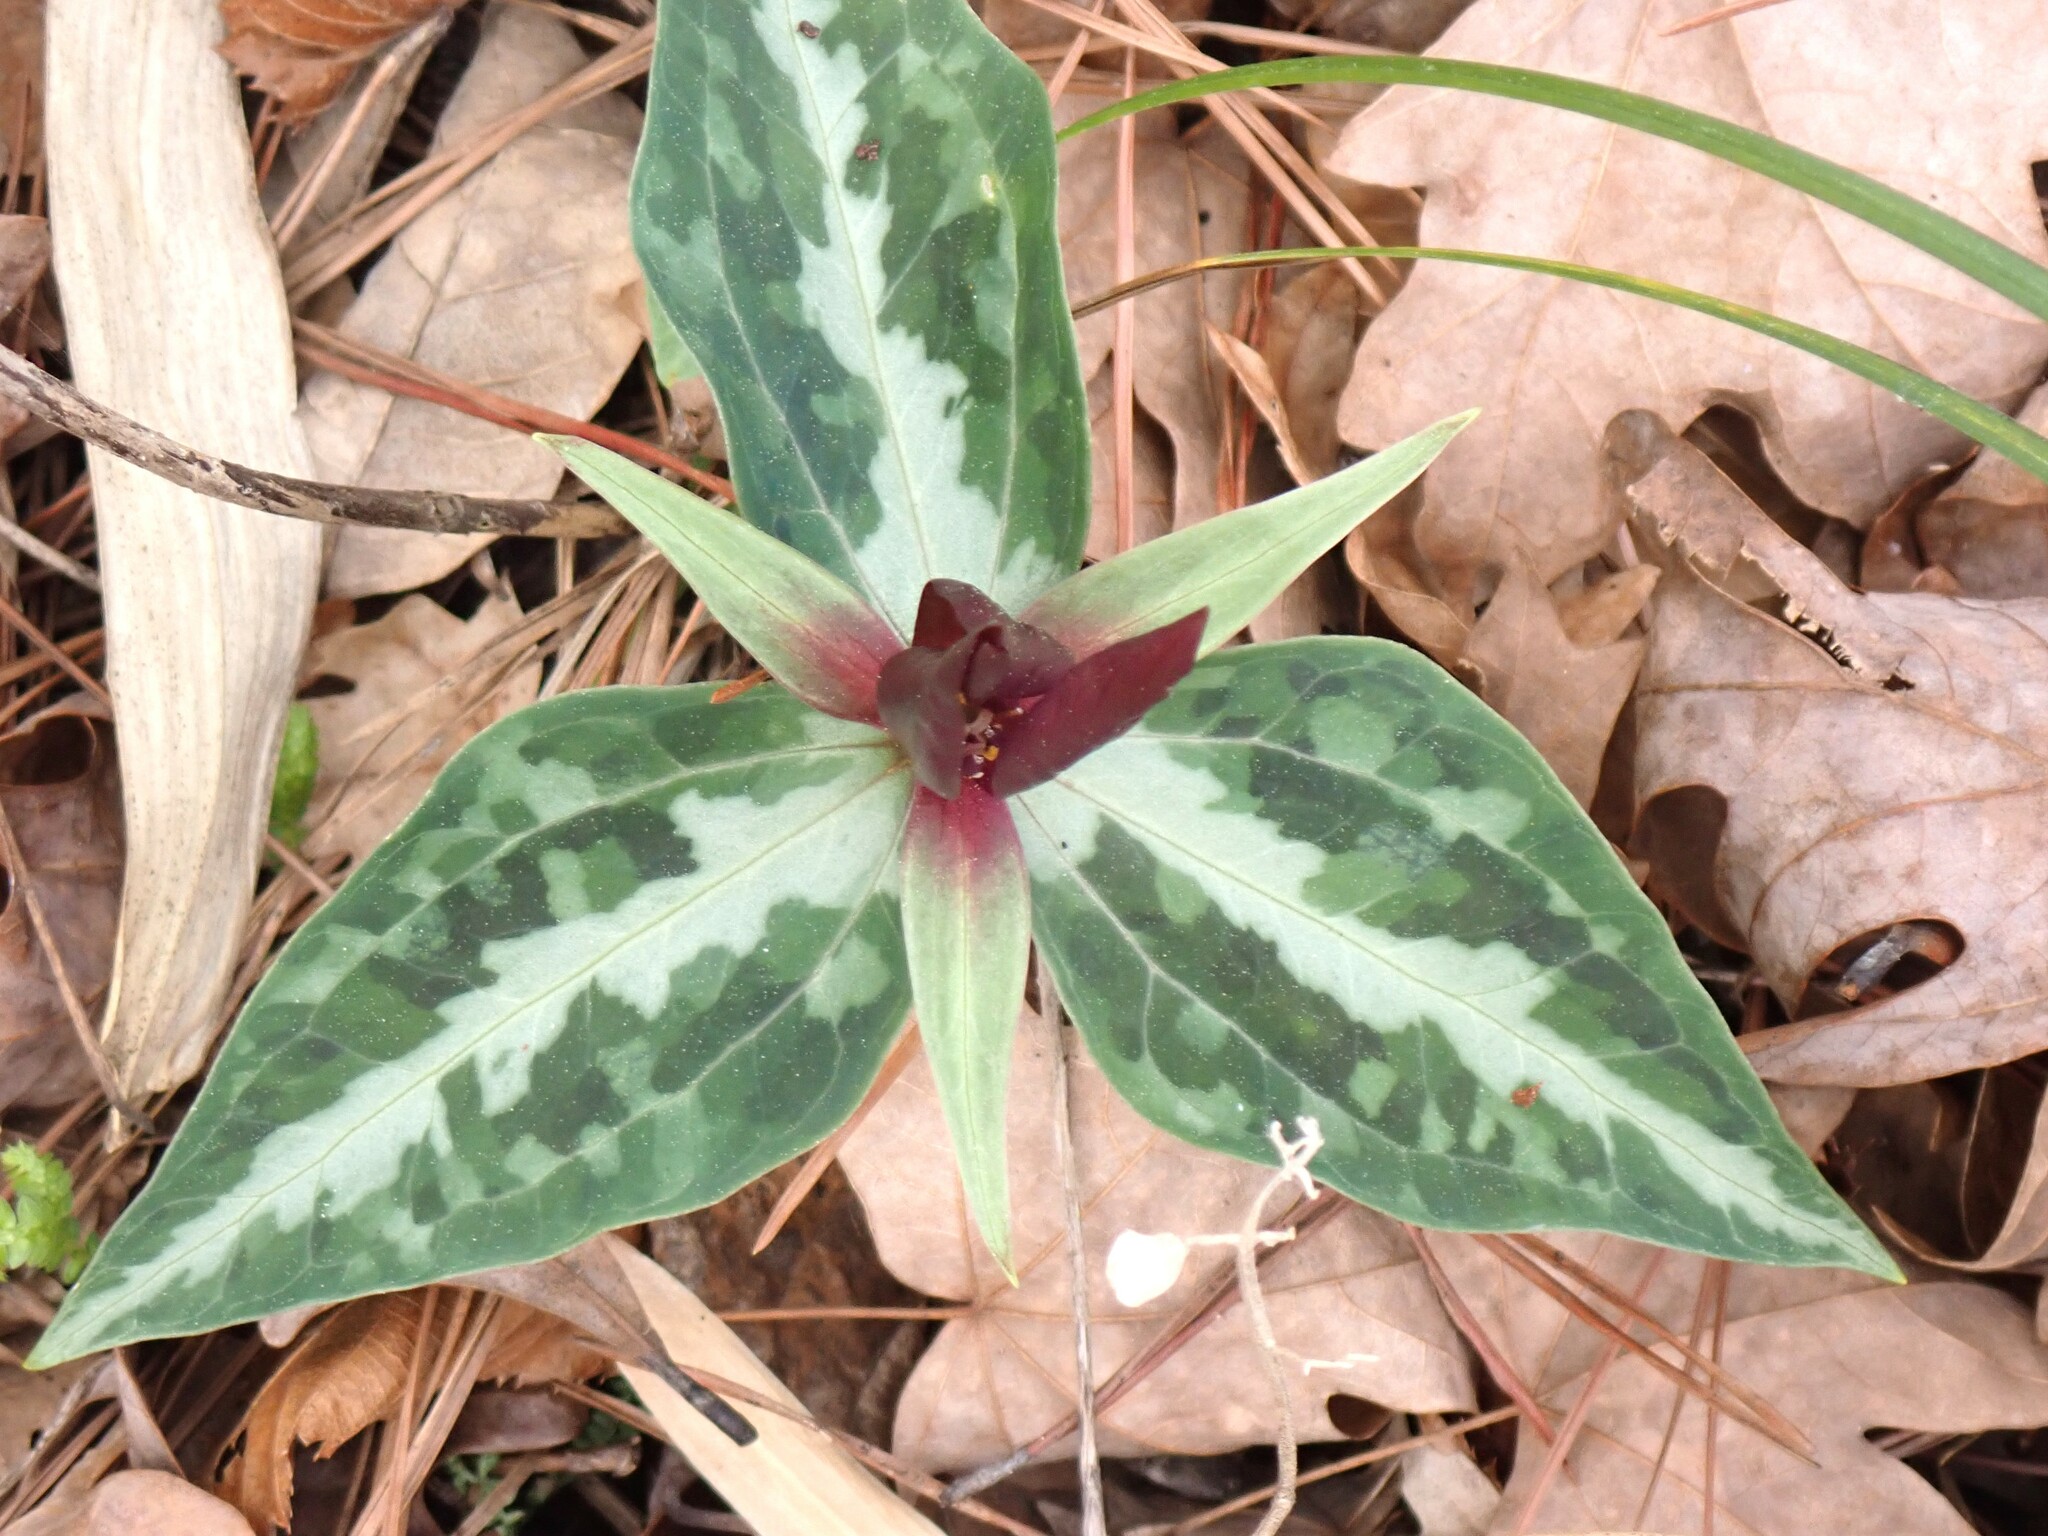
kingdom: Plantae
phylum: Tracheophyta
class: Liliopsida
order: Liliales
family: Melanthiaceae
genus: Trillium
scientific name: Trillium underwoodii
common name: Longbract wakerobin
